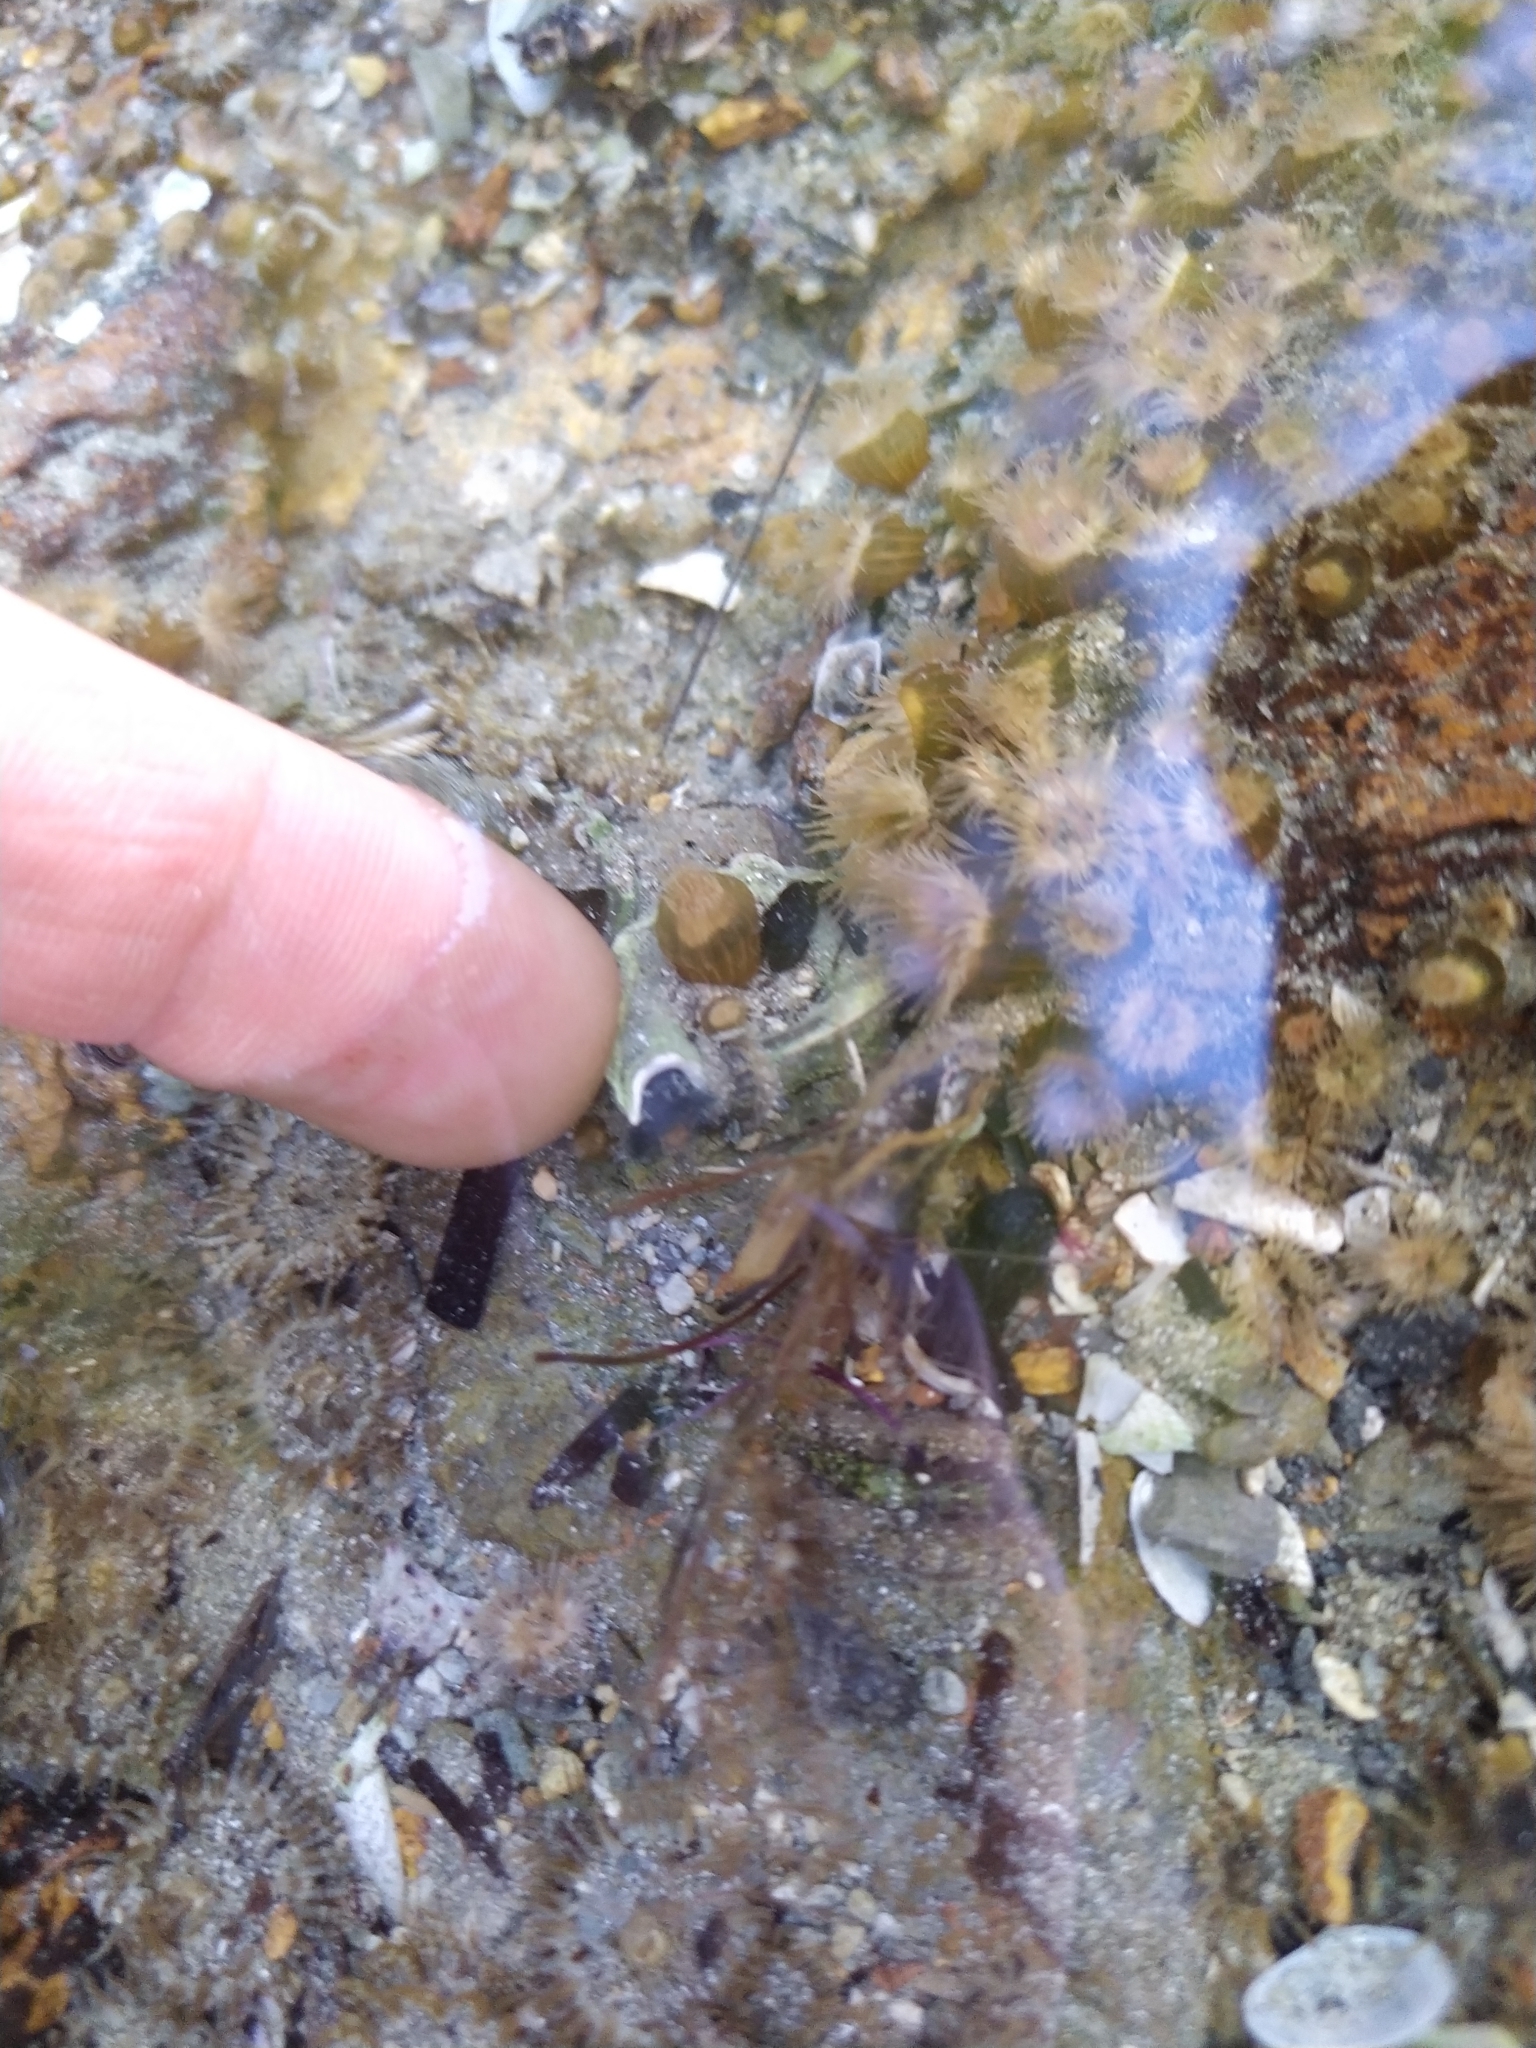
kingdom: Animalia
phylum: Annelida
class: Polychaeta
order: Sabellida
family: Serpulidae
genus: Spirobranchus
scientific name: Spirobranchus cariniferus
